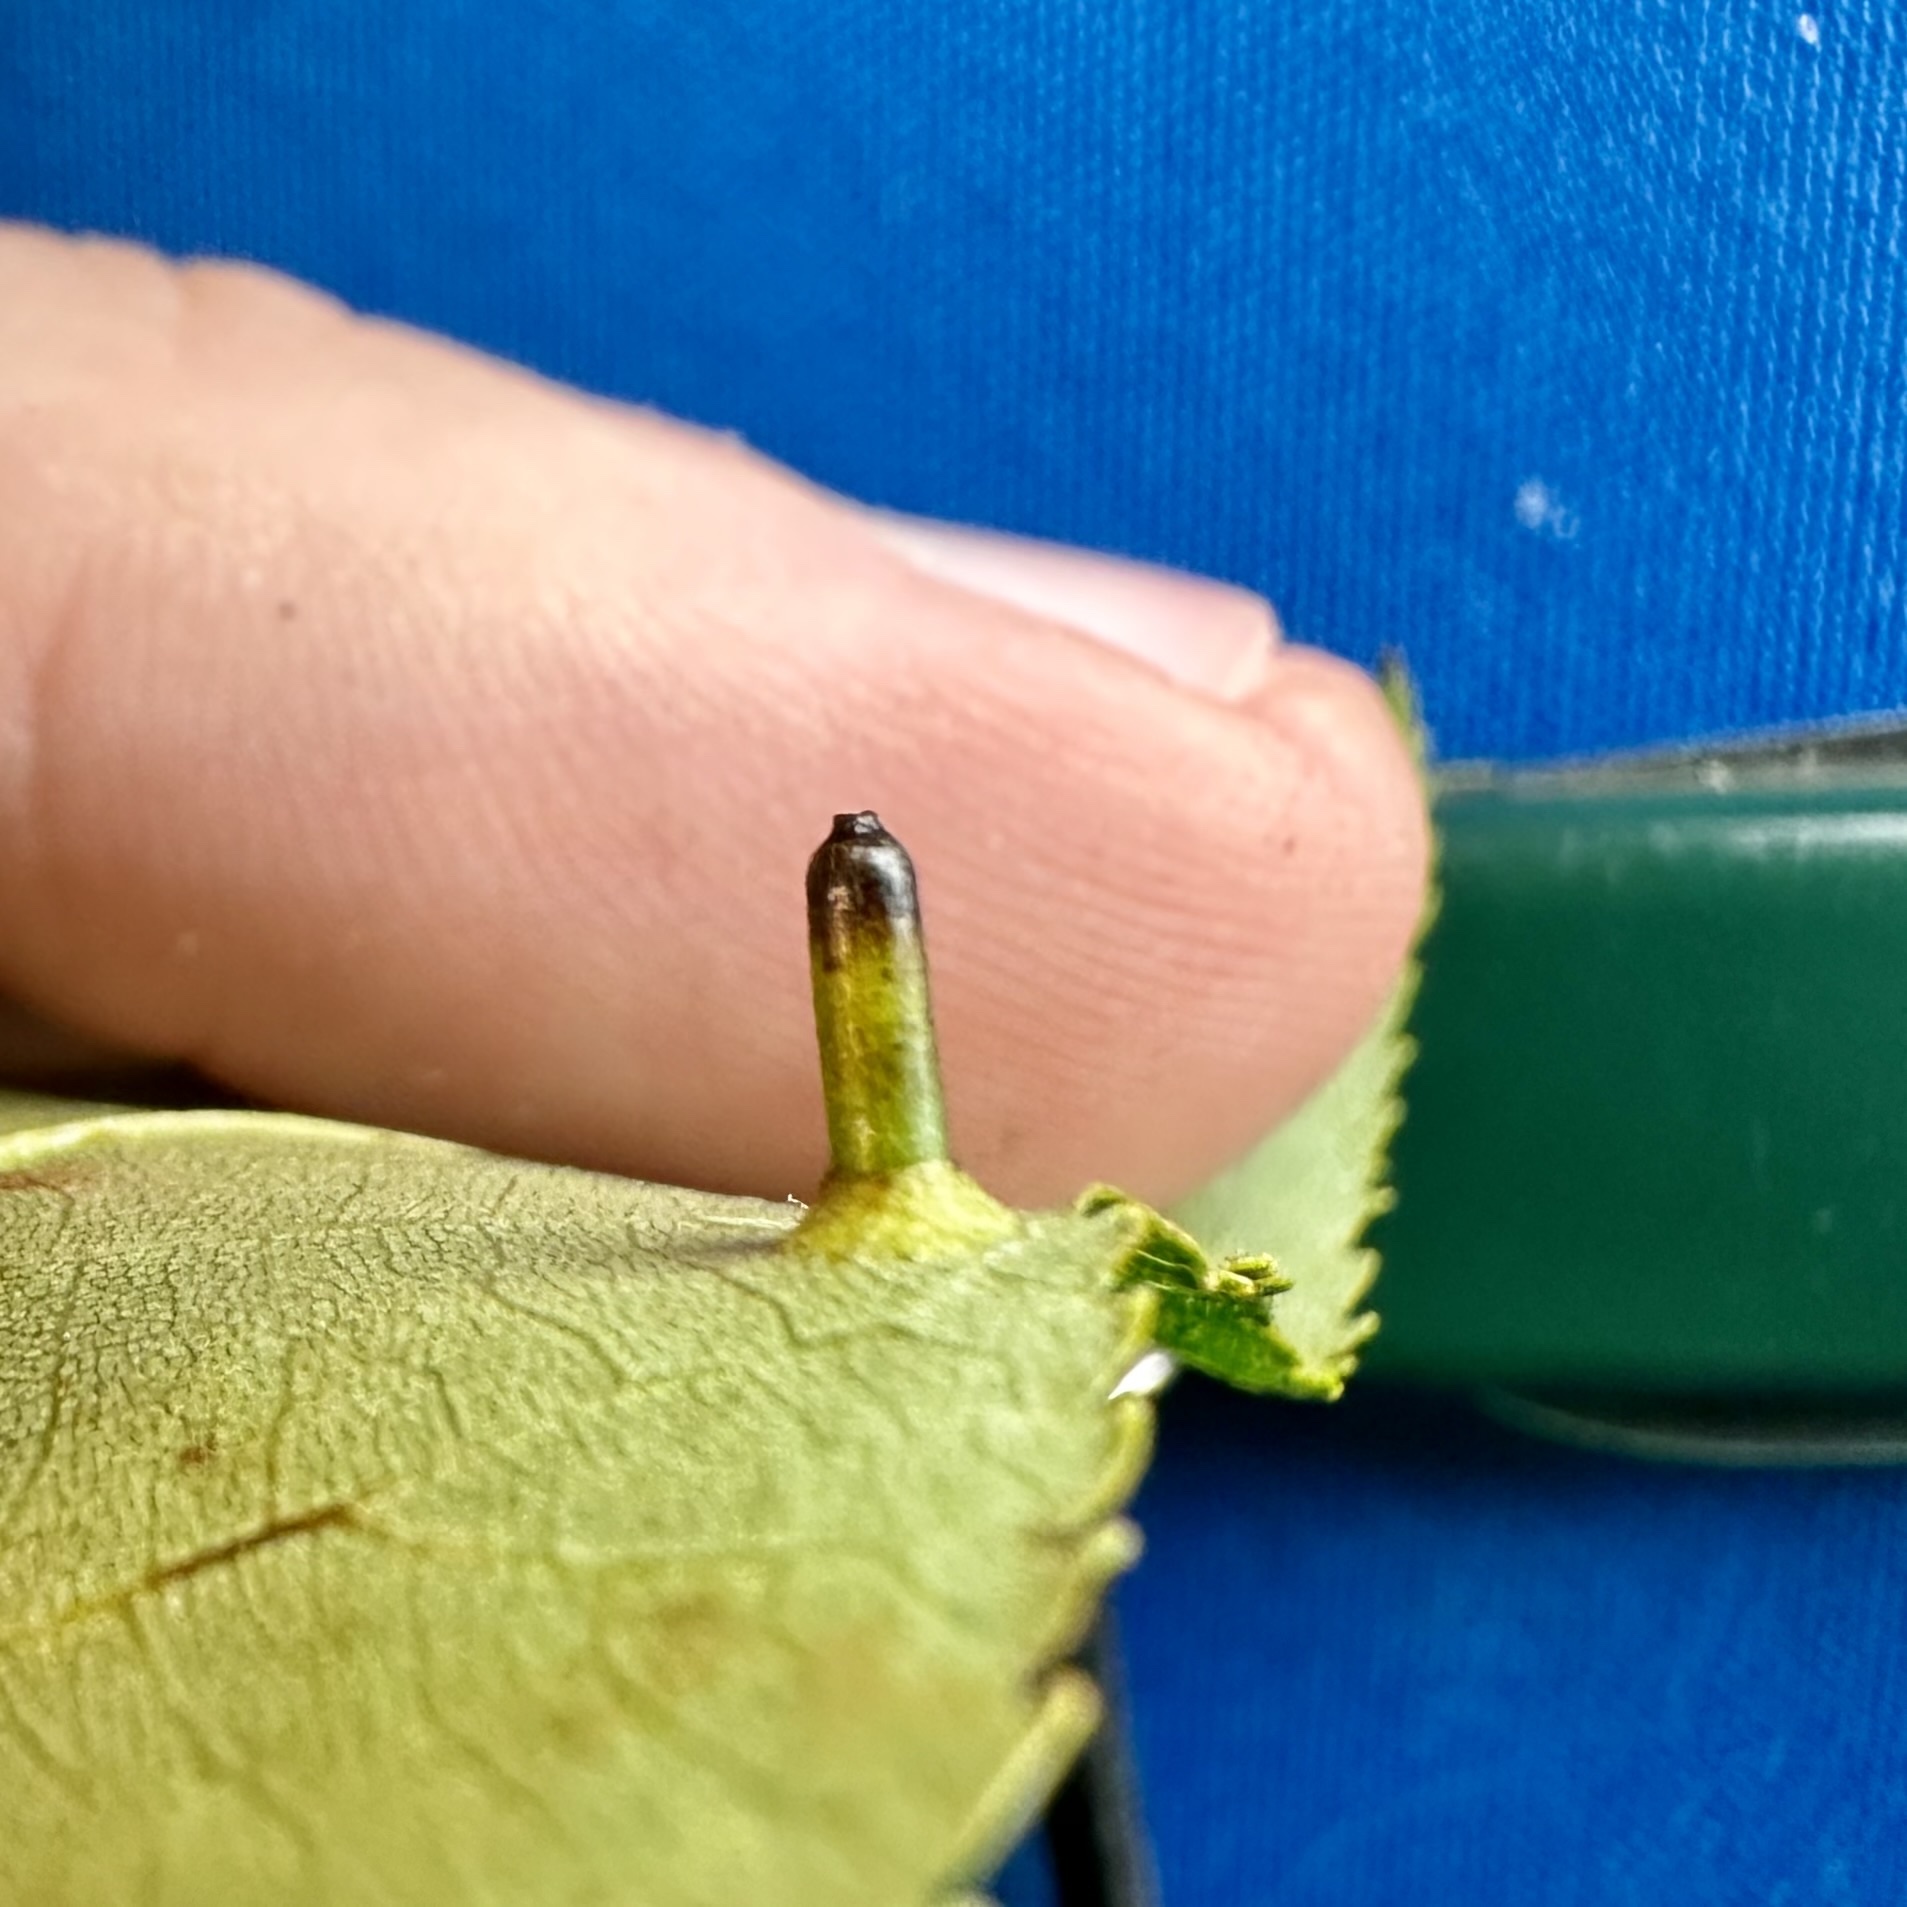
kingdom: Animalia
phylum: Arthropoda
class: Insecta
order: Diptera
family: Cecidomyiidae
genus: Caryomyia
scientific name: Caryomyia tubicola
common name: Hickory bullet gall midge
